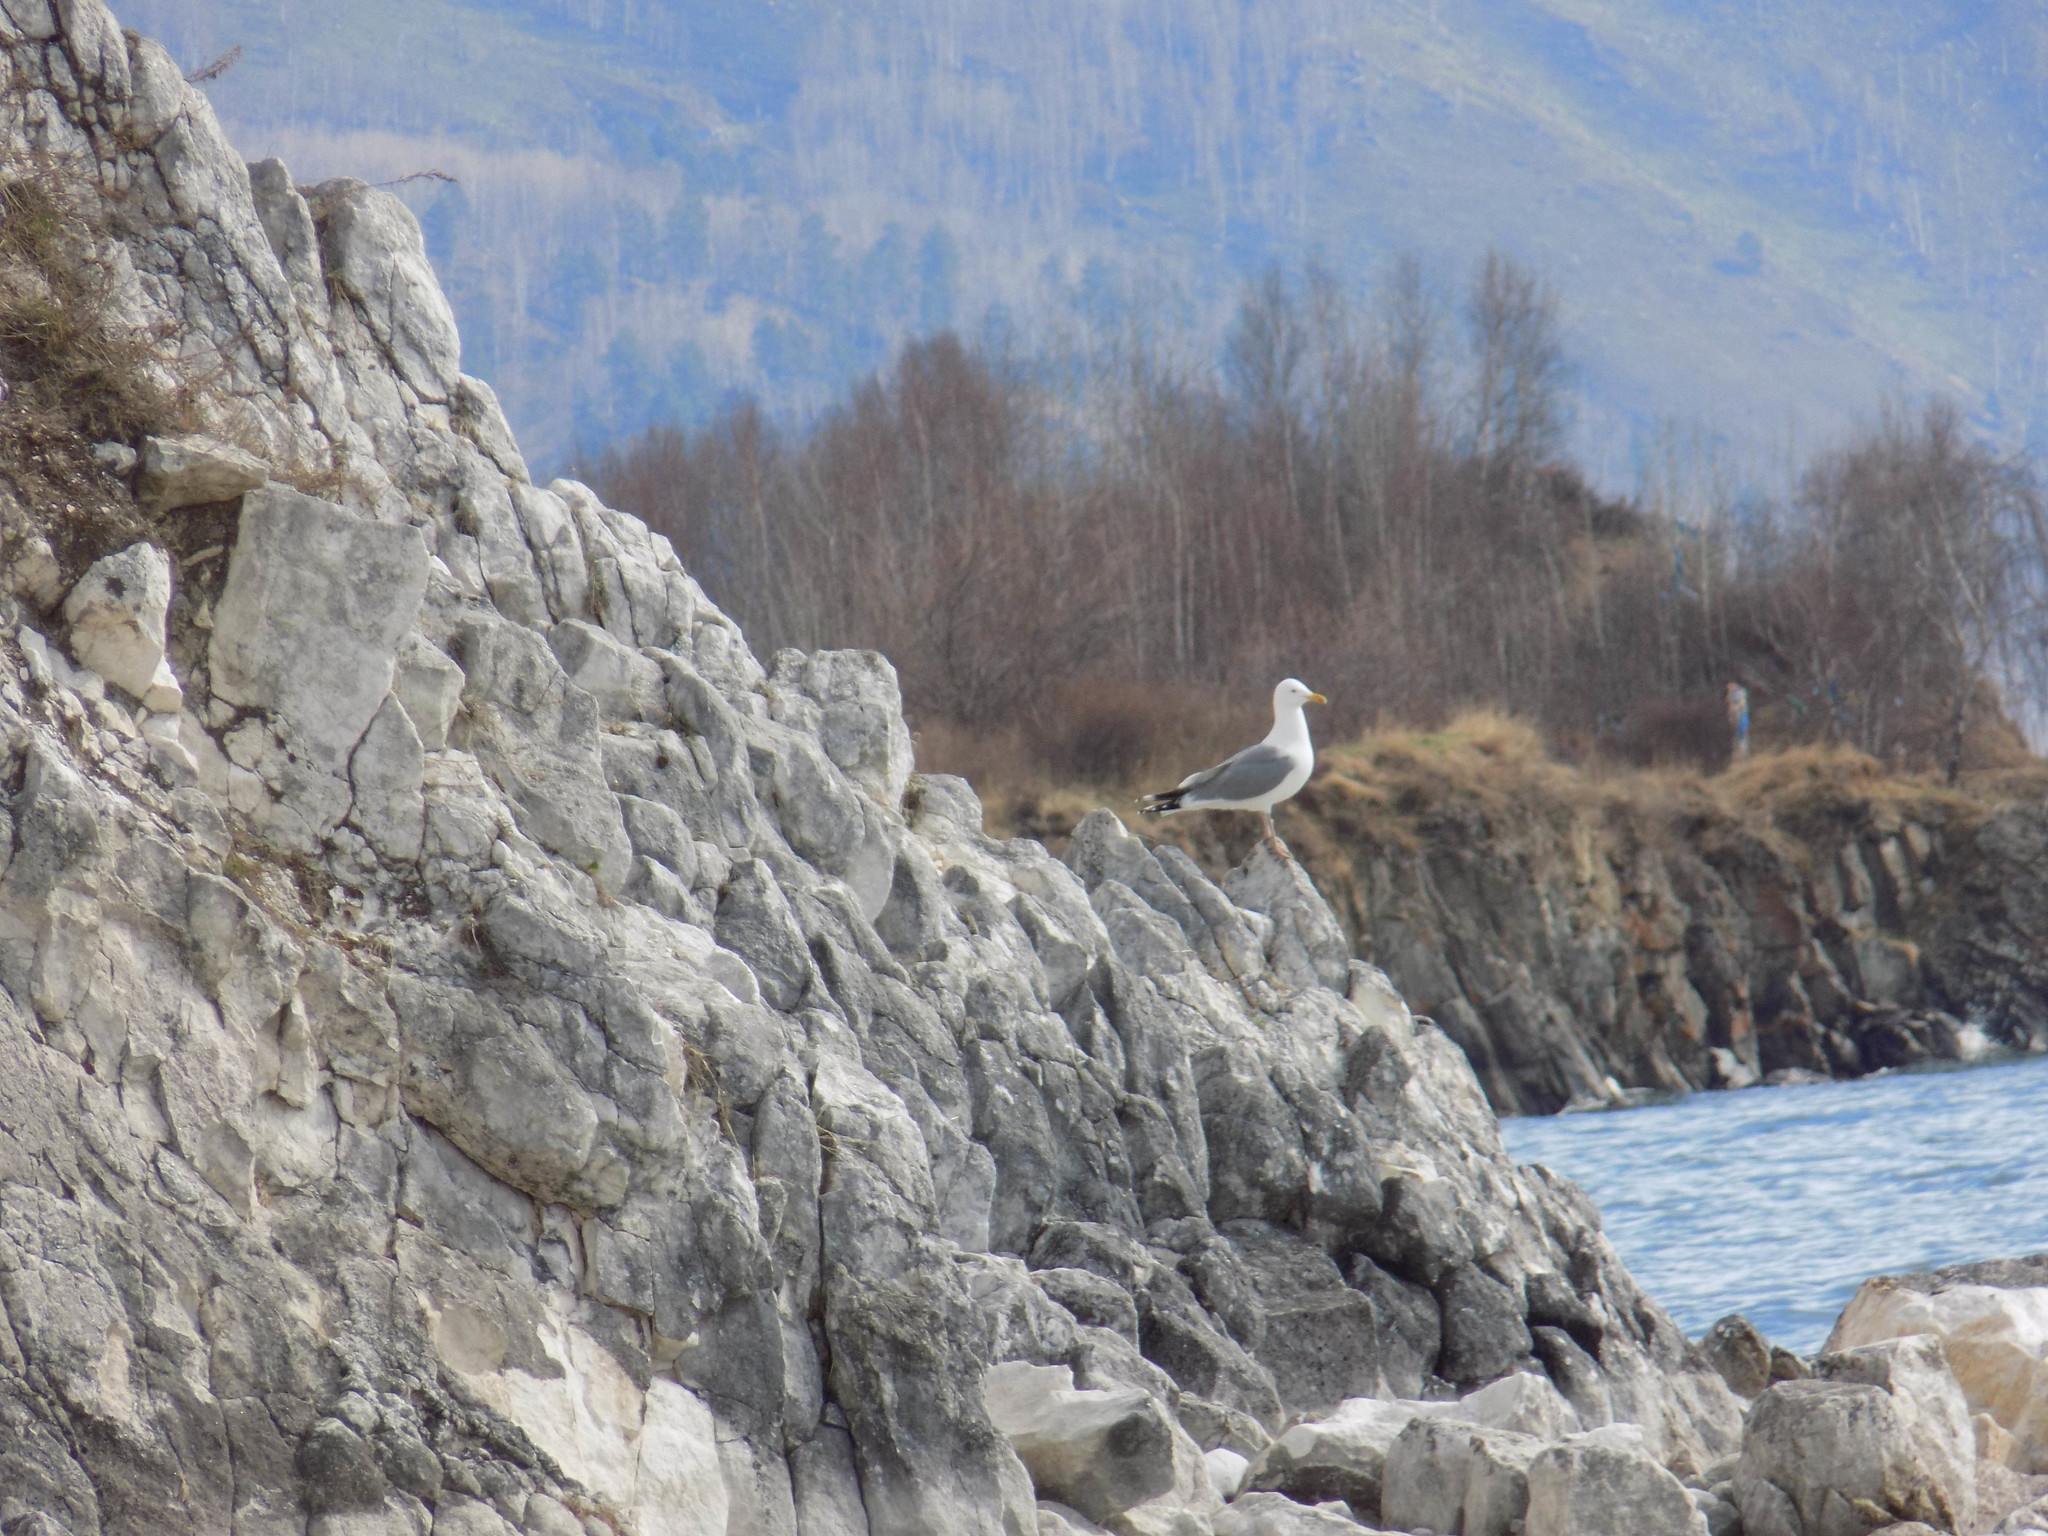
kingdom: Animalia
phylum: Chordata
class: Aves
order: Charadriiformes
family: Laridae
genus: Larus
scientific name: Larus vegae
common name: Vega gull
